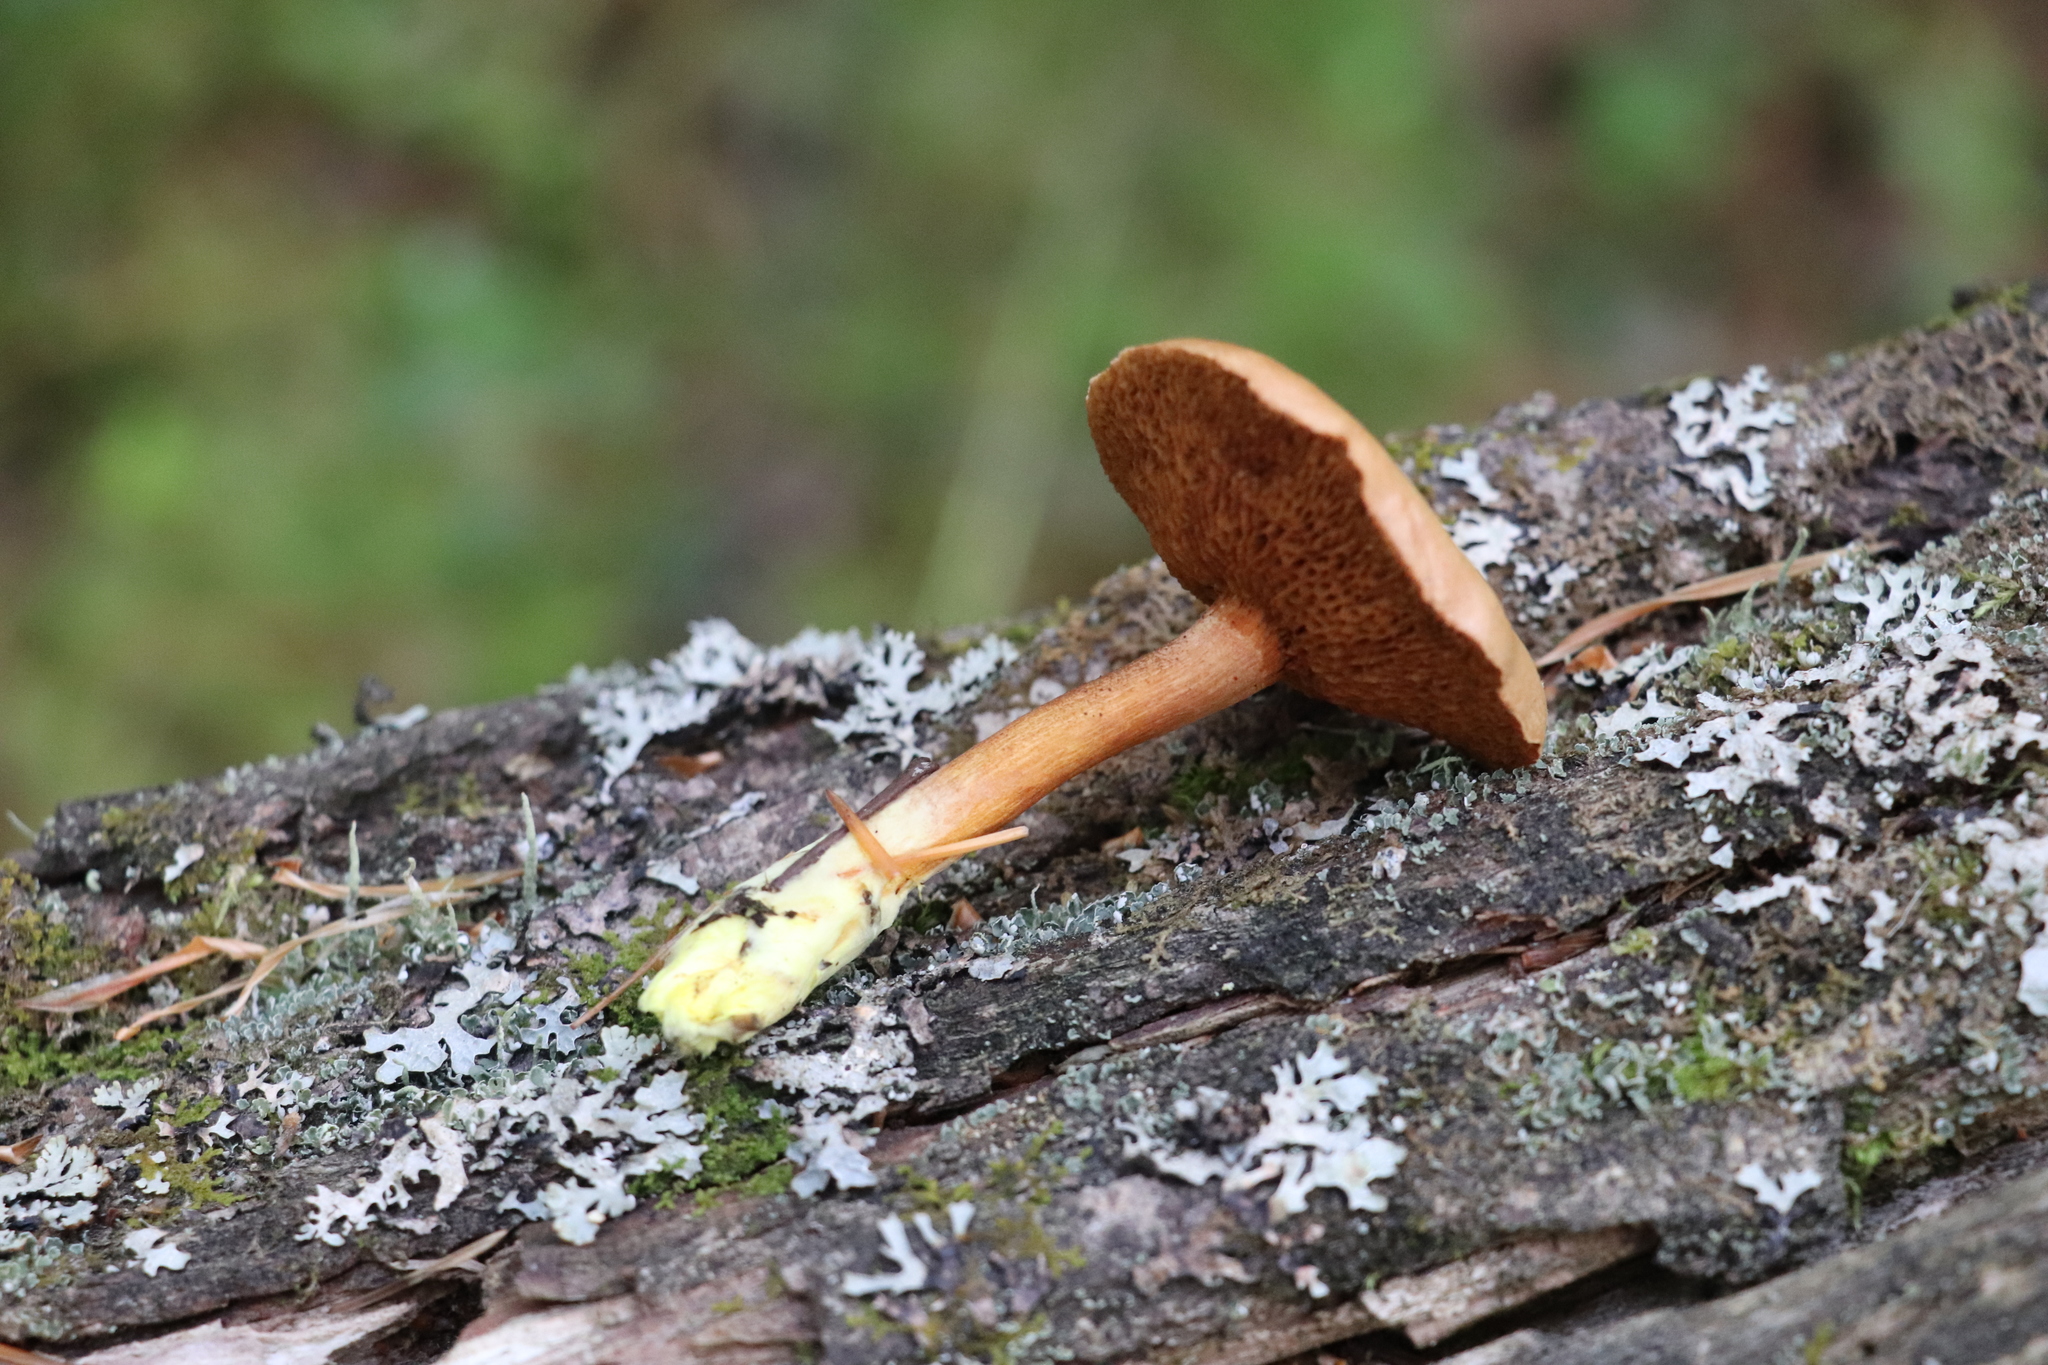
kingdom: Fungi
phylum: Basidiomycota
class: Agaricomycetes
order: Boletales
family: Boletaceae
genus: Chalciporus
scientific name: Chalciporus piperatus
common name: Peppery bolete
